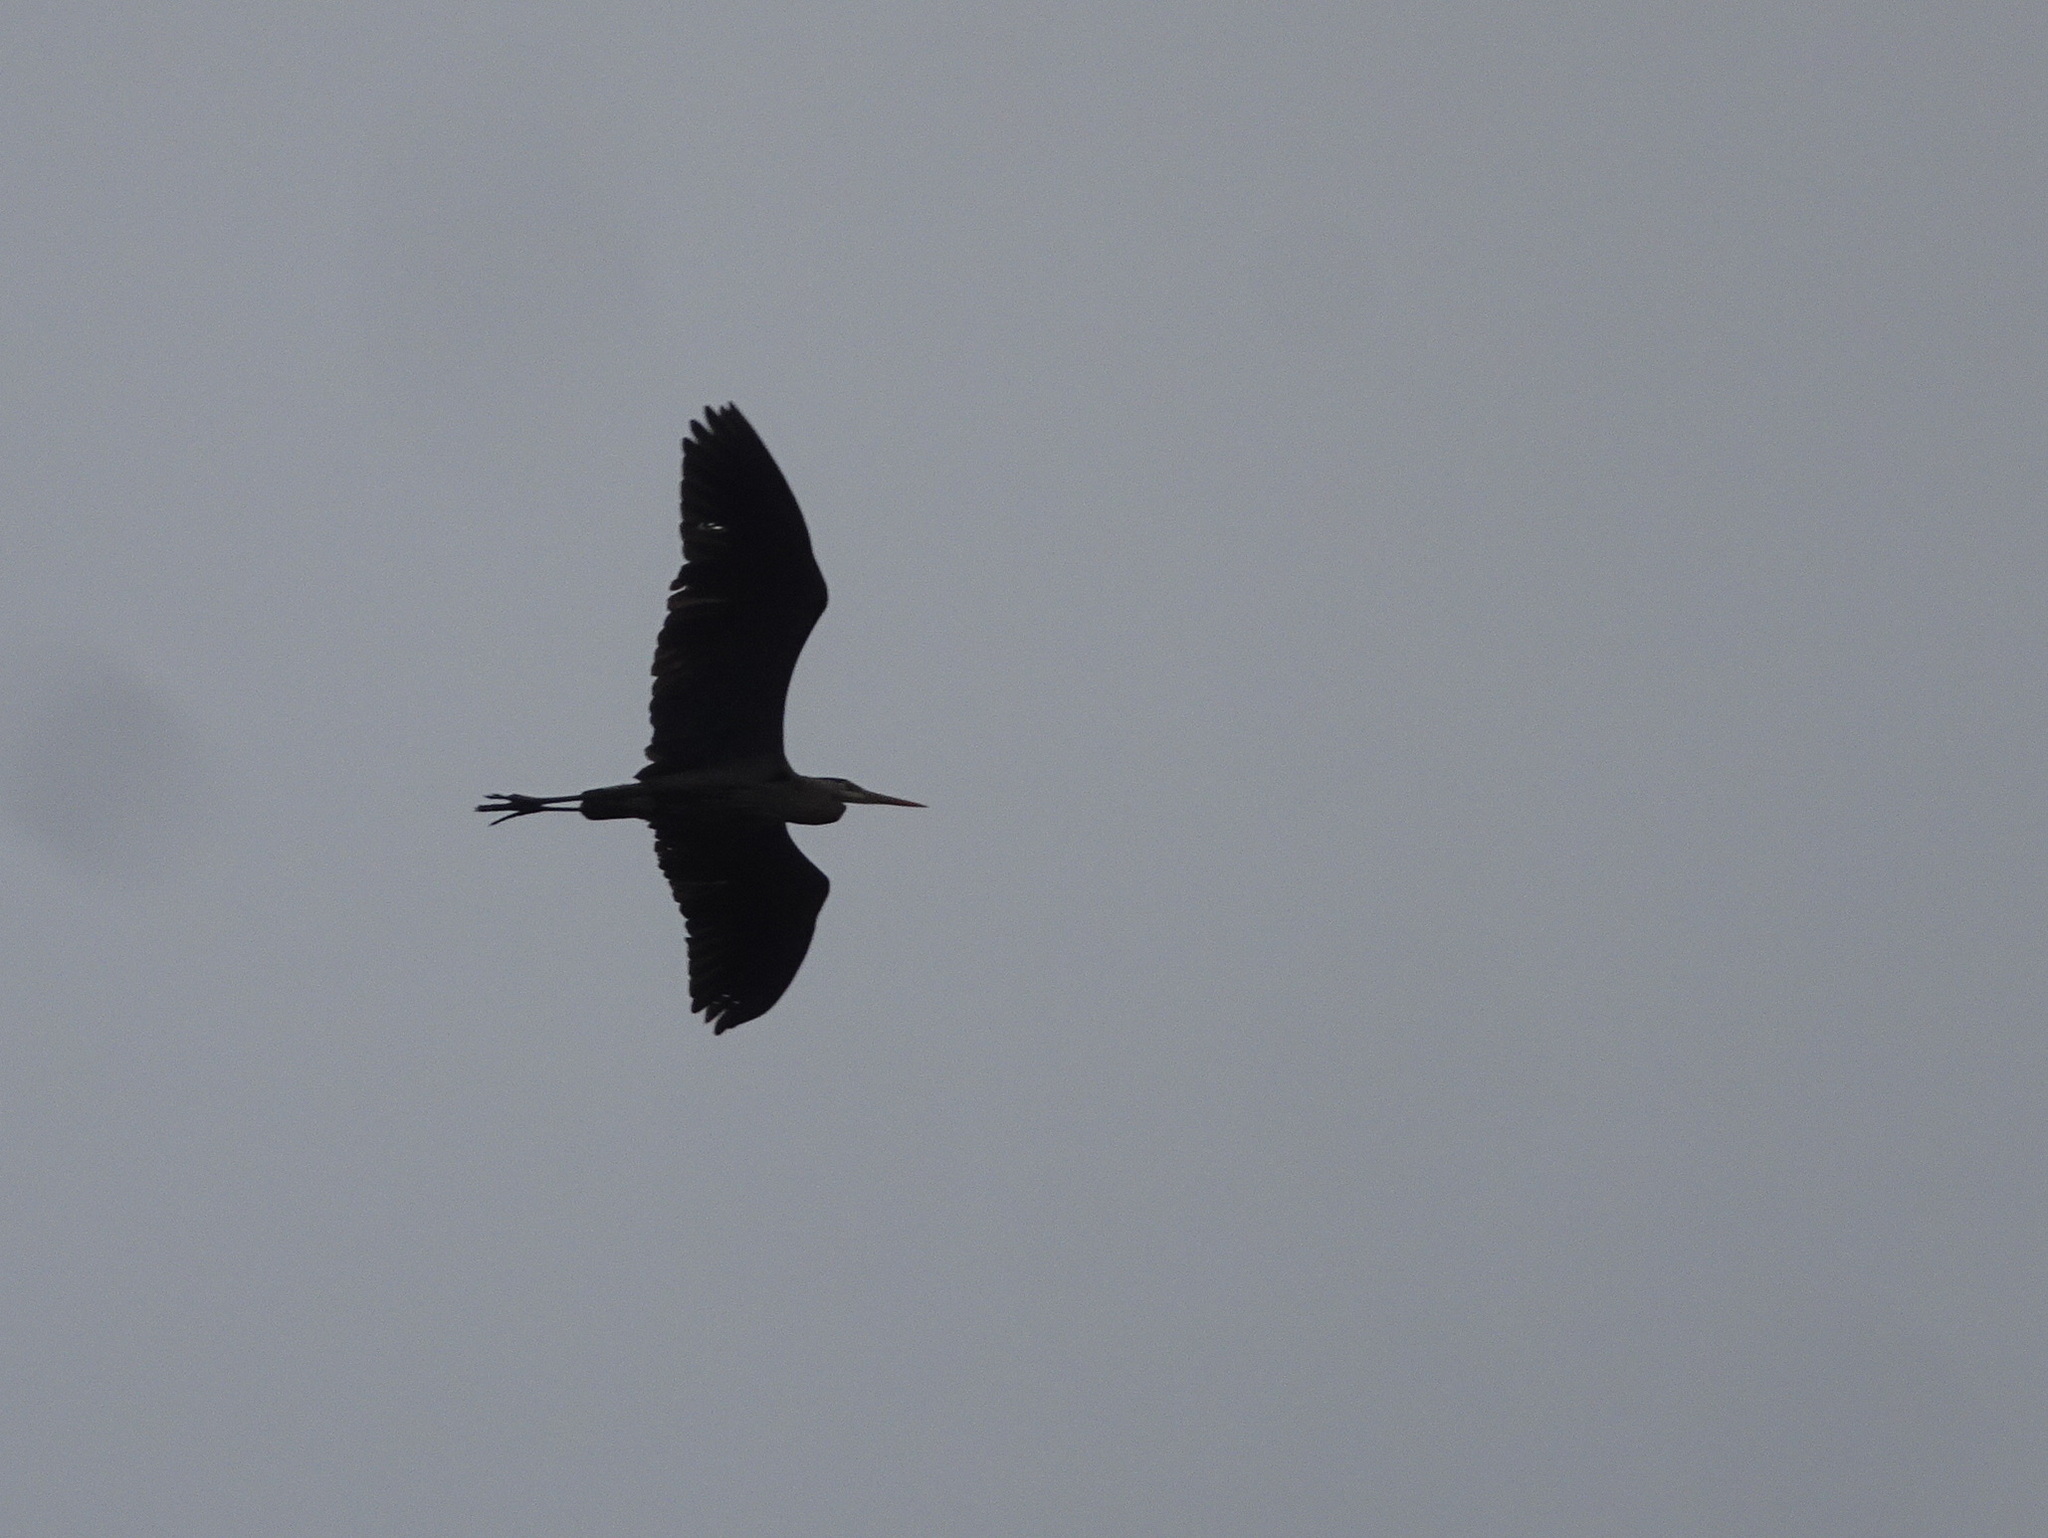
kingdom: Animalia
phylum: Chordata
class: Aves
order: Pelecaniformes
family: Ardeidae
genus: Ardea
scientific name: Ardea herodias
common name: Great blue heron
